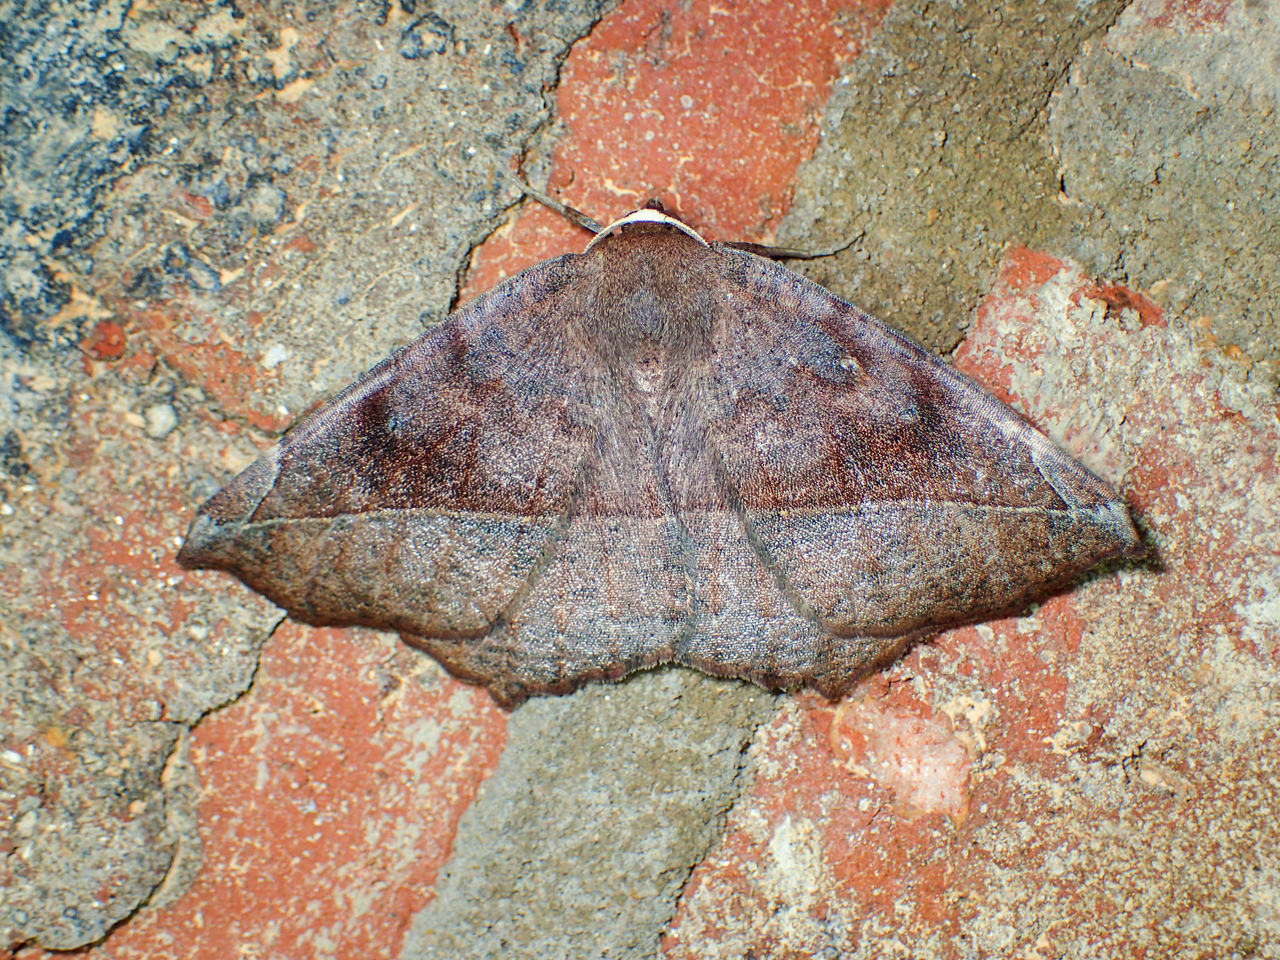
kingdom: Animalia
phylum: Arthropoda
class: Insecta
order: Lepidoptera
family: Geometridae
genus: Eutrapela
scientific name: Eutrapela clemataria
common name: Curved-toothed geometer
